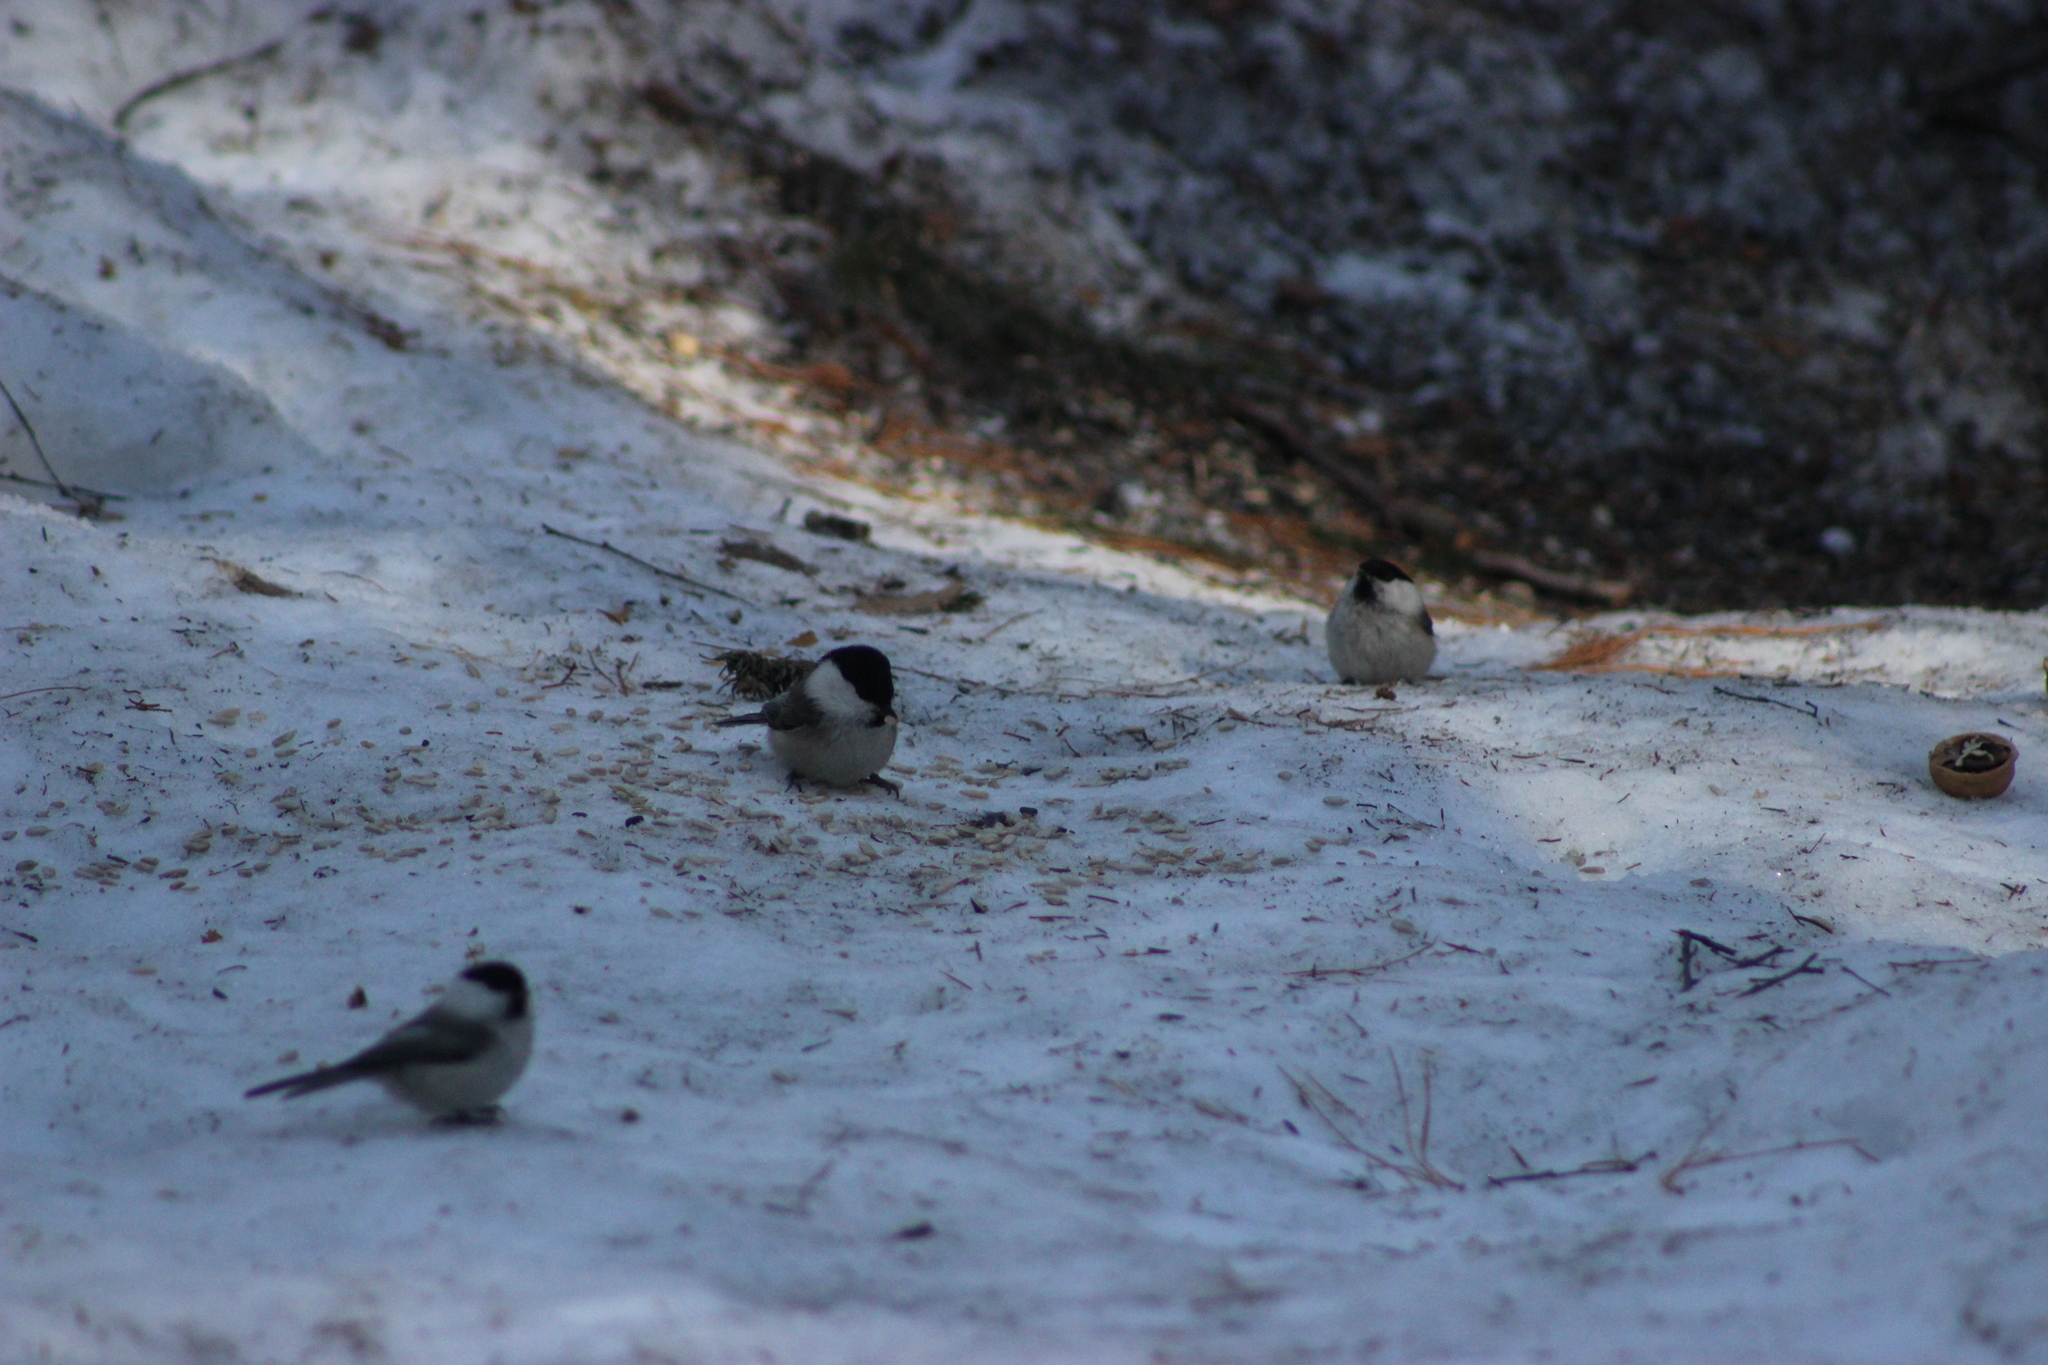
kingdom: Animalia
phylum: Chordata
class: Aves
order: Passeriformes
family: Paridae
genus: Poecile
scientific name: Poecile montanus
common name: Willow tit
